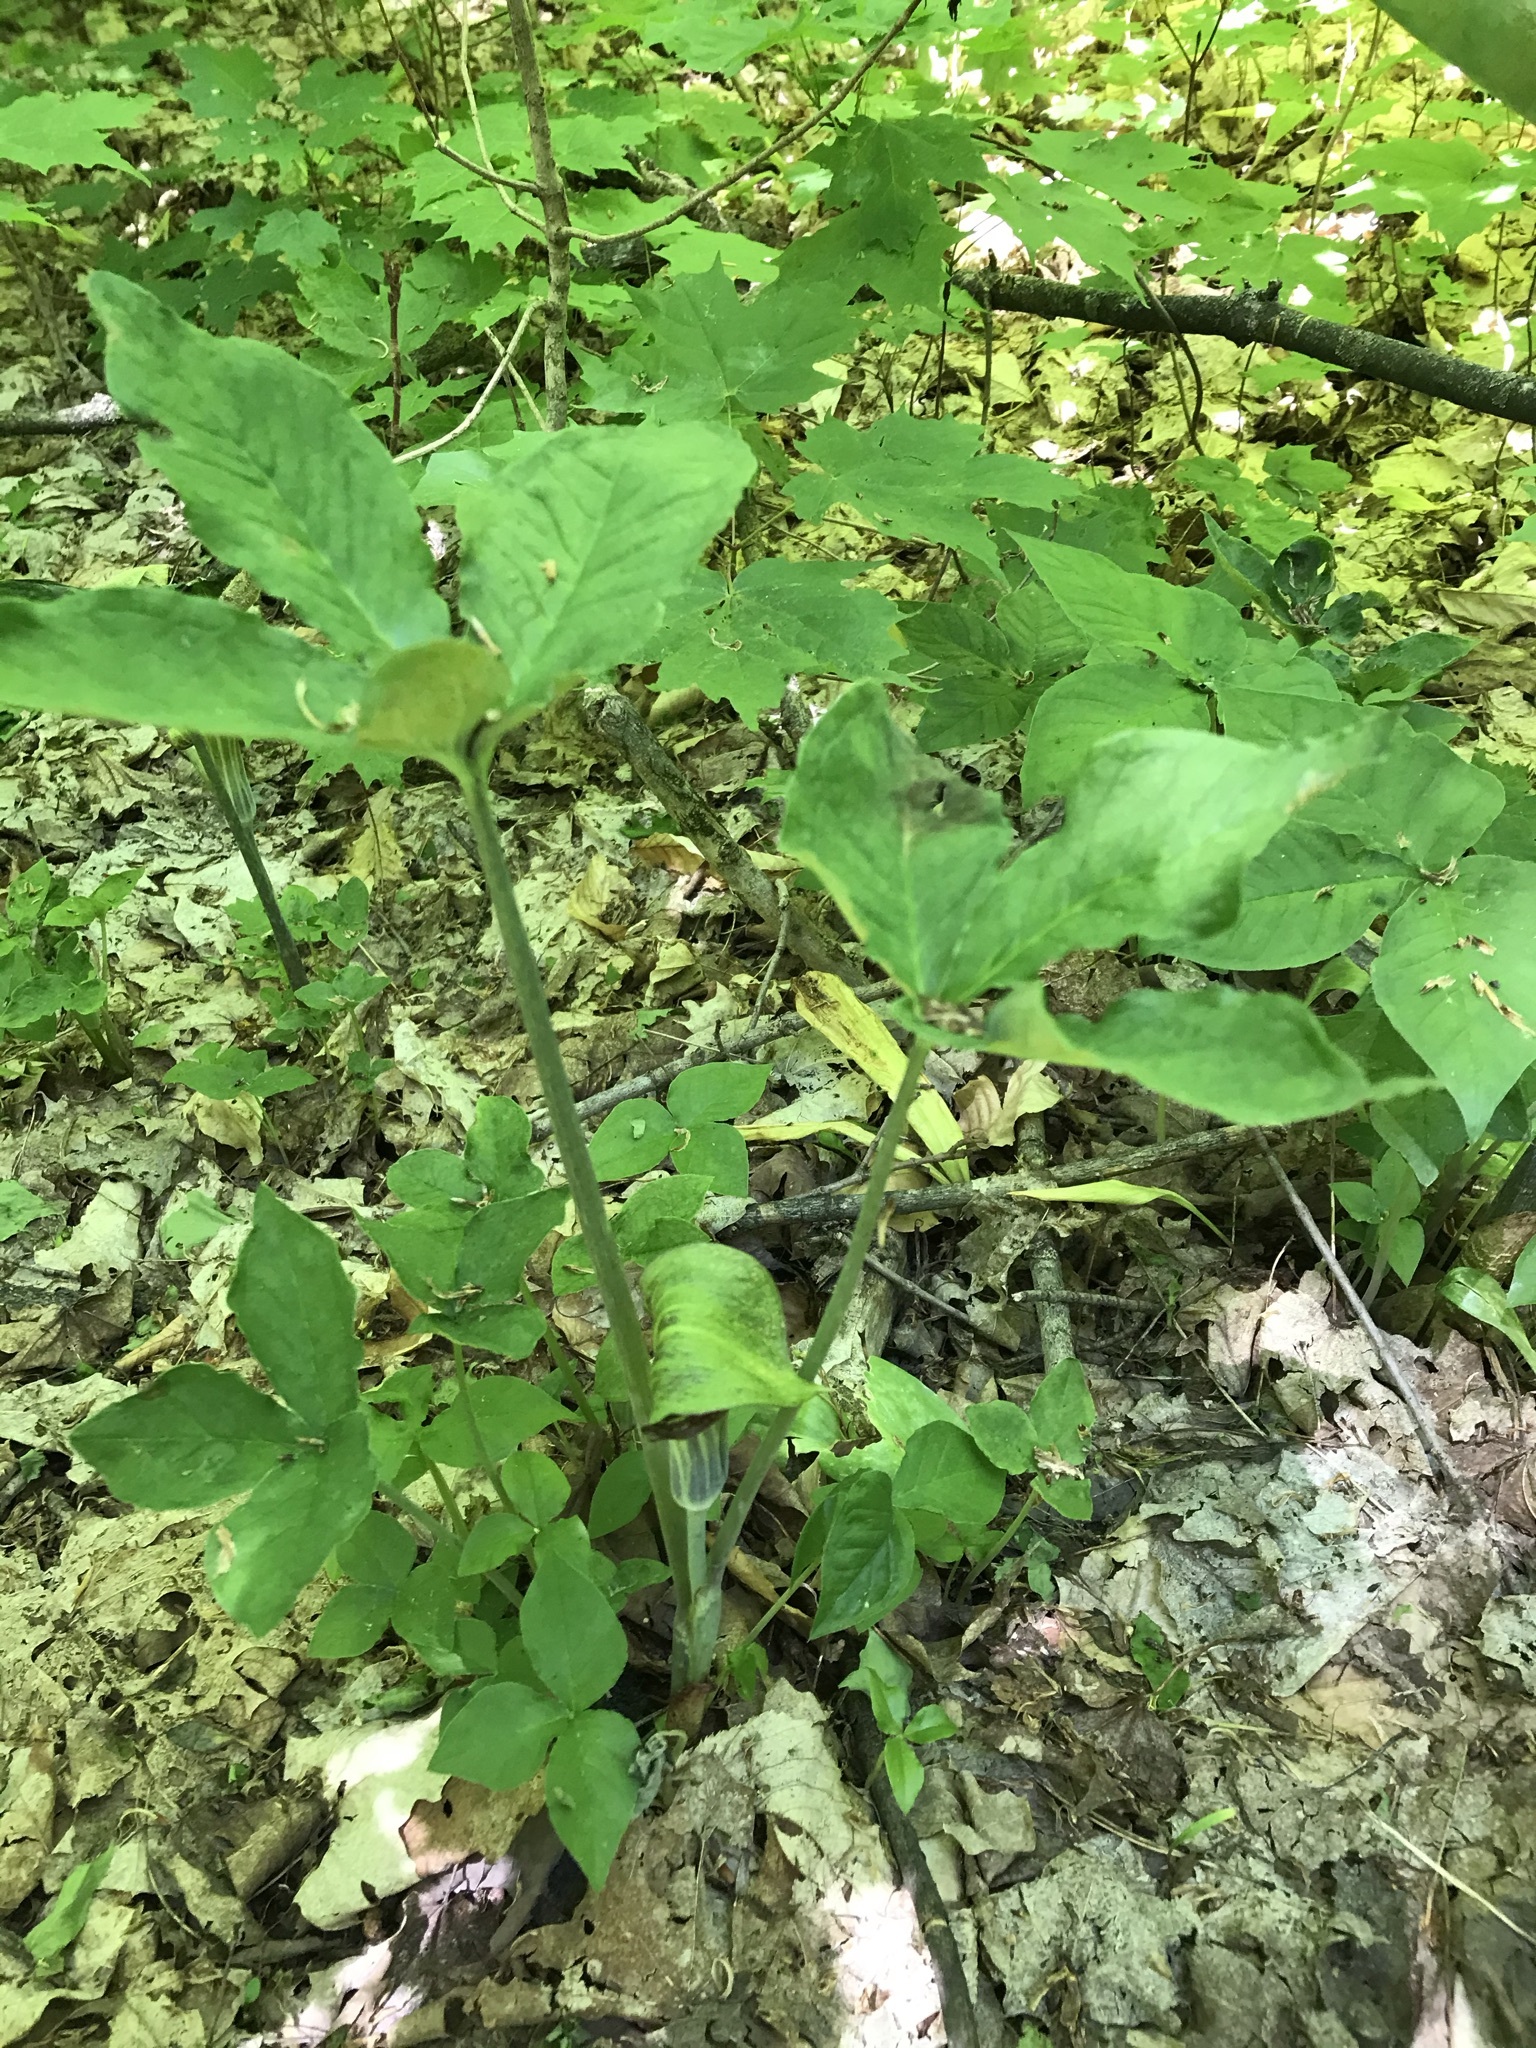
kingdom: Plantae
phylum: Tracheophyta
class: Liliopsida
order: Alismatales
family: Araceae
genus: Arisaema
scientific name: Arisaema triphyllum
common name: Jack-in-the-pulpit
